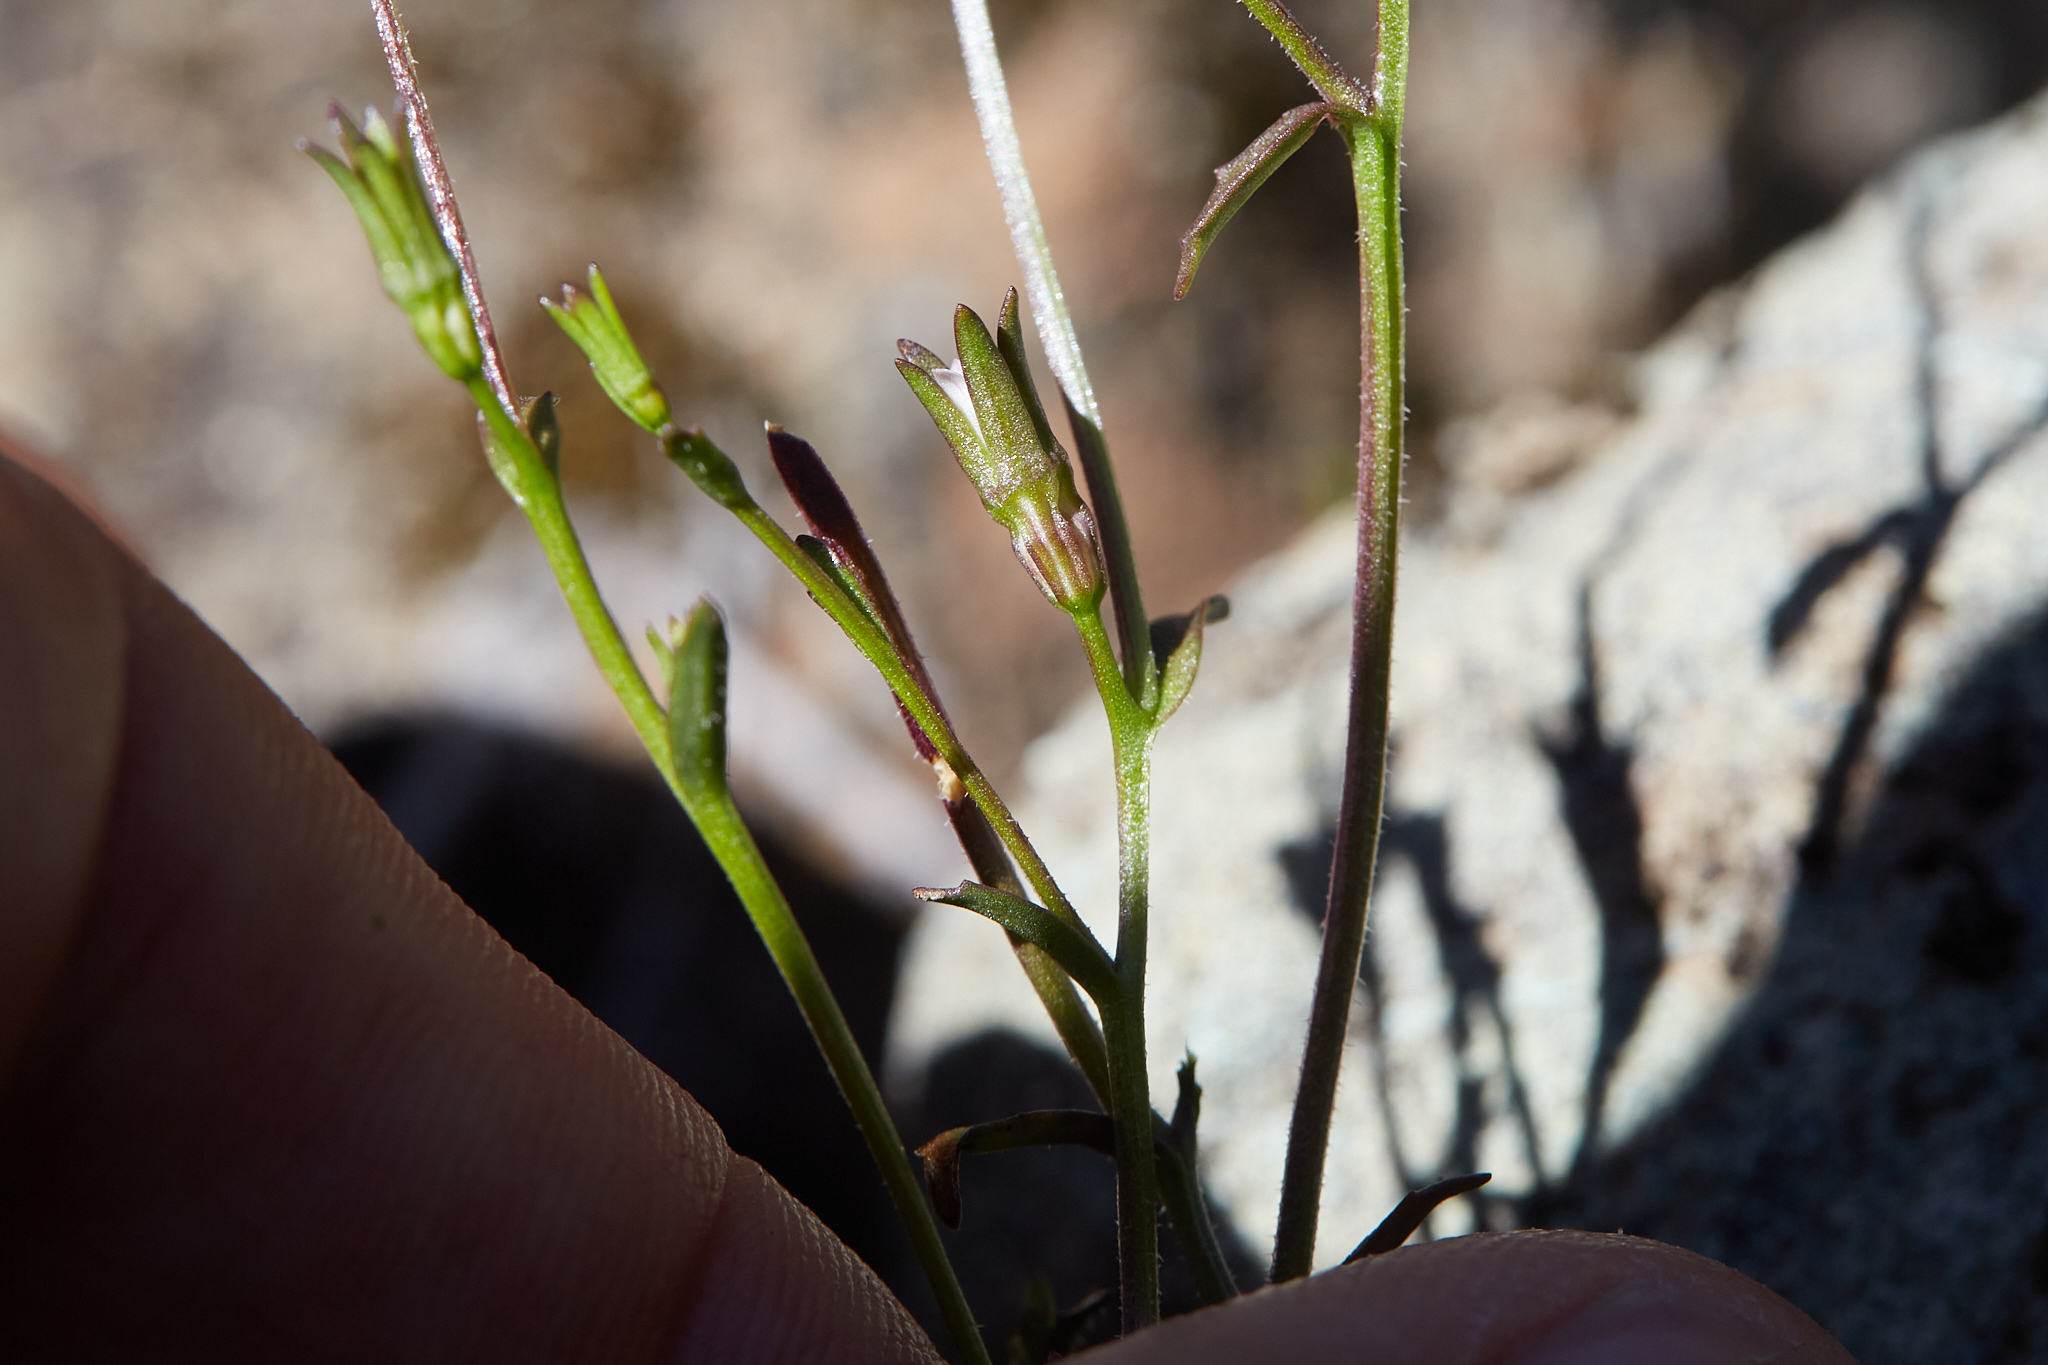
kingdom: Plantae
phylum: Tracheophyta
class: Magnoliopsida
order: Asterales
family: Campanulaceae
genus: Ravenella
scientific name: Ravenella griffinii
